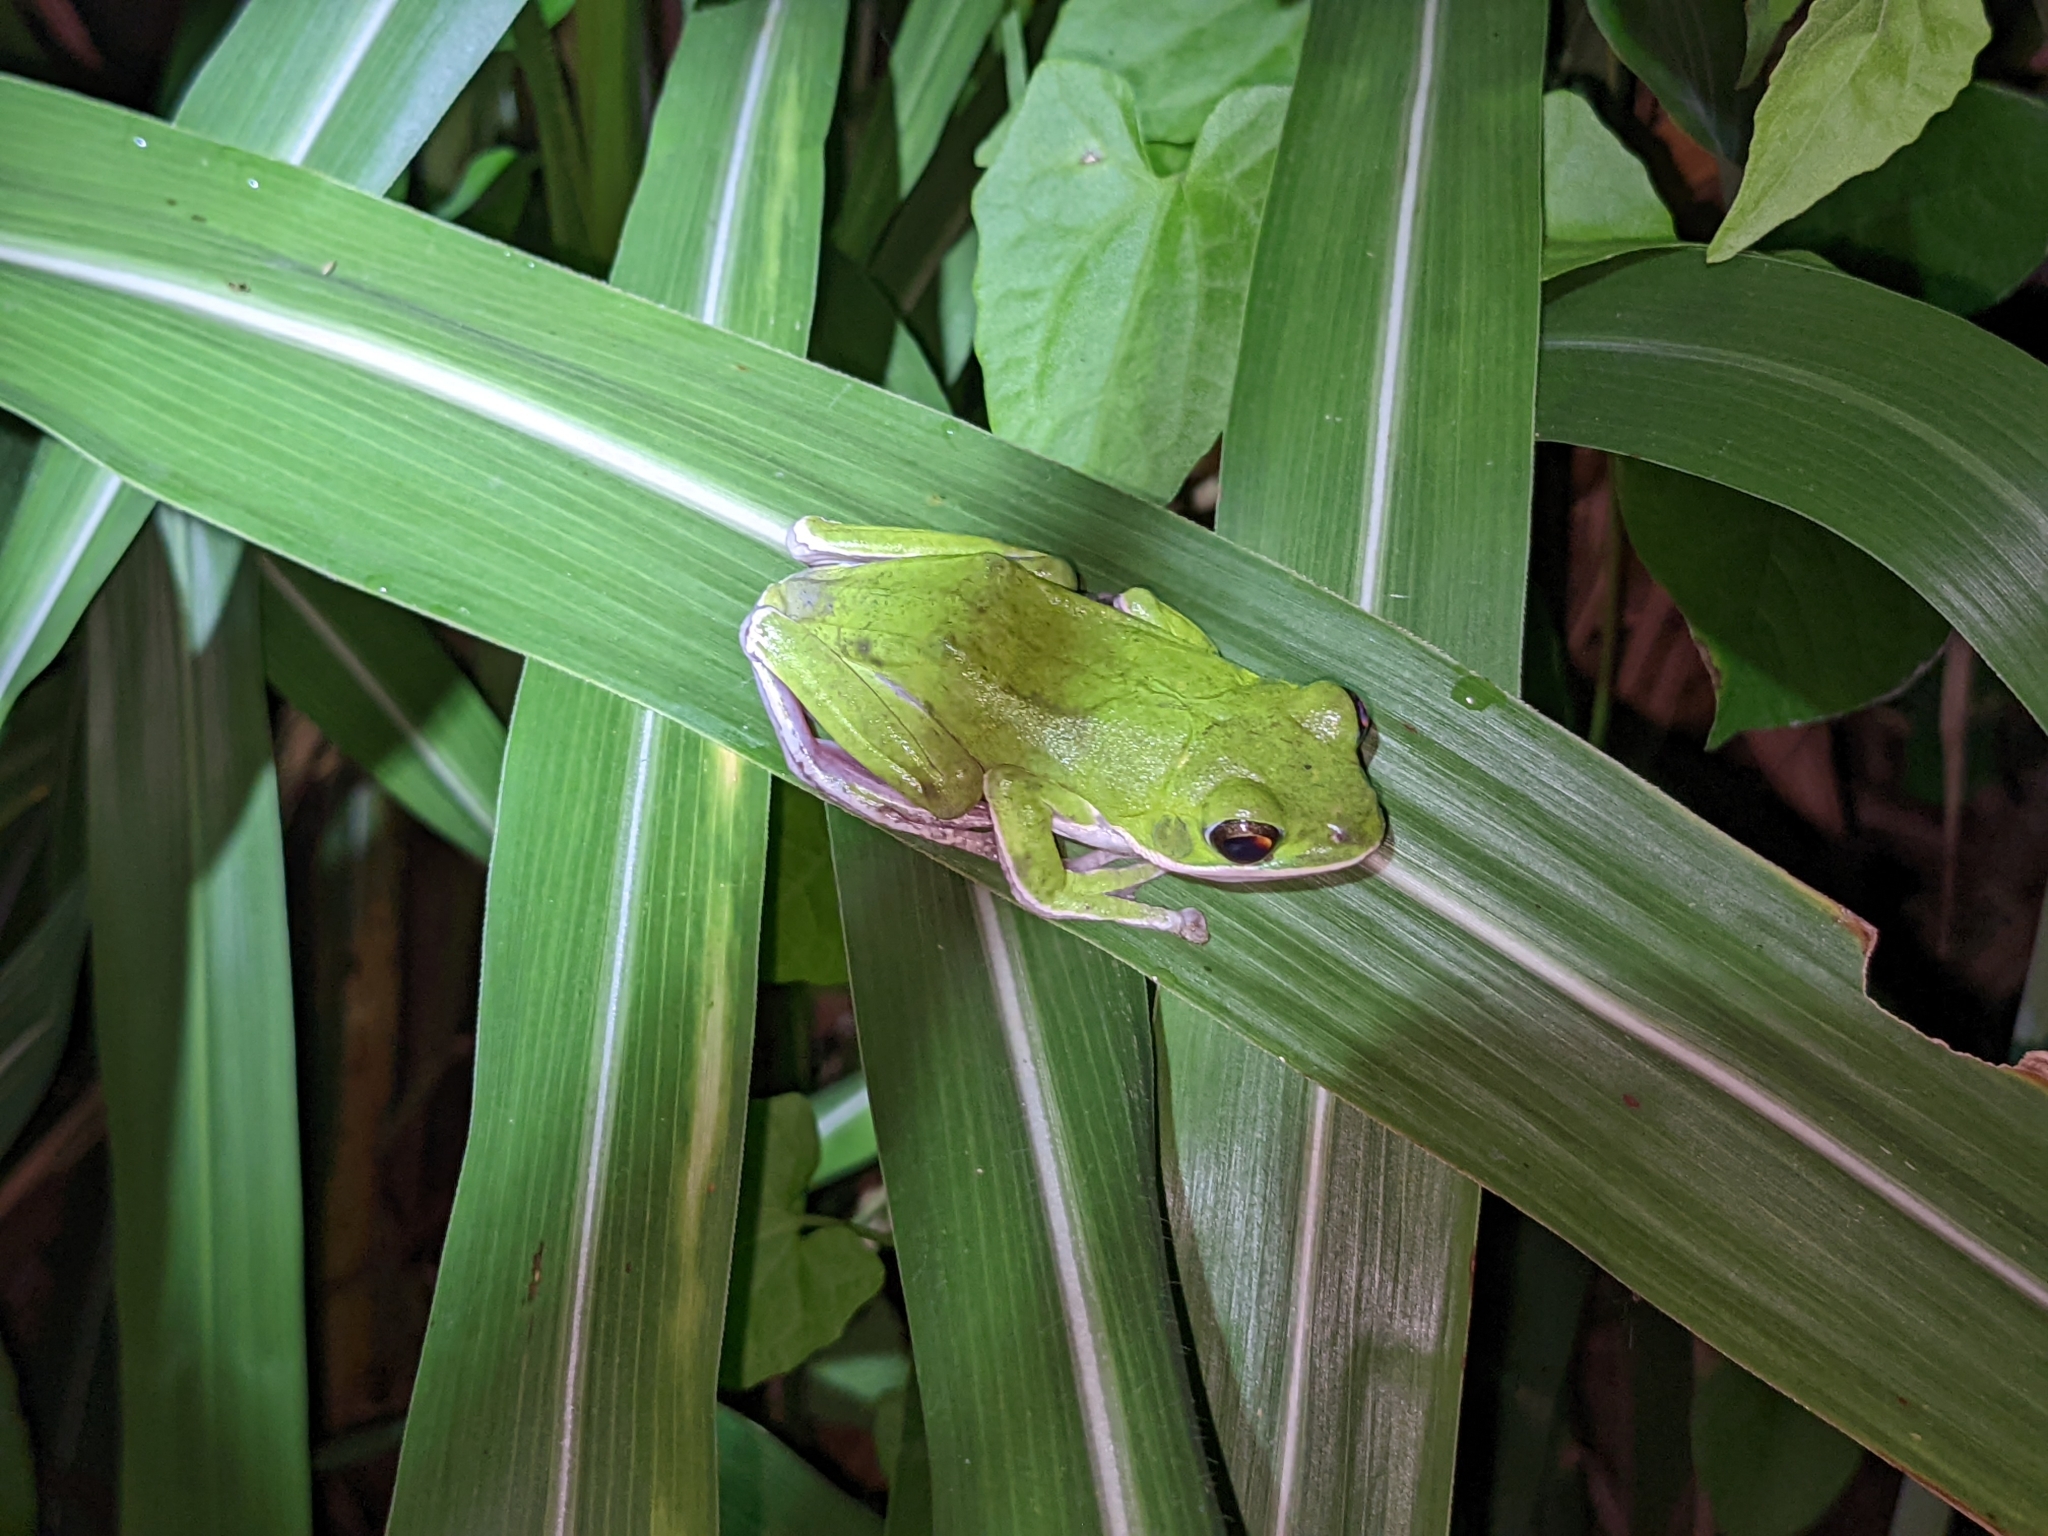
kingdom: Animalia
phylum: Chordata
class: Amphibia
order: Anura
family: Rhacophoridae
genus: Zhangixalus
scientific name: Zhangixalus arvalis
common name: Farmland green treefrog
